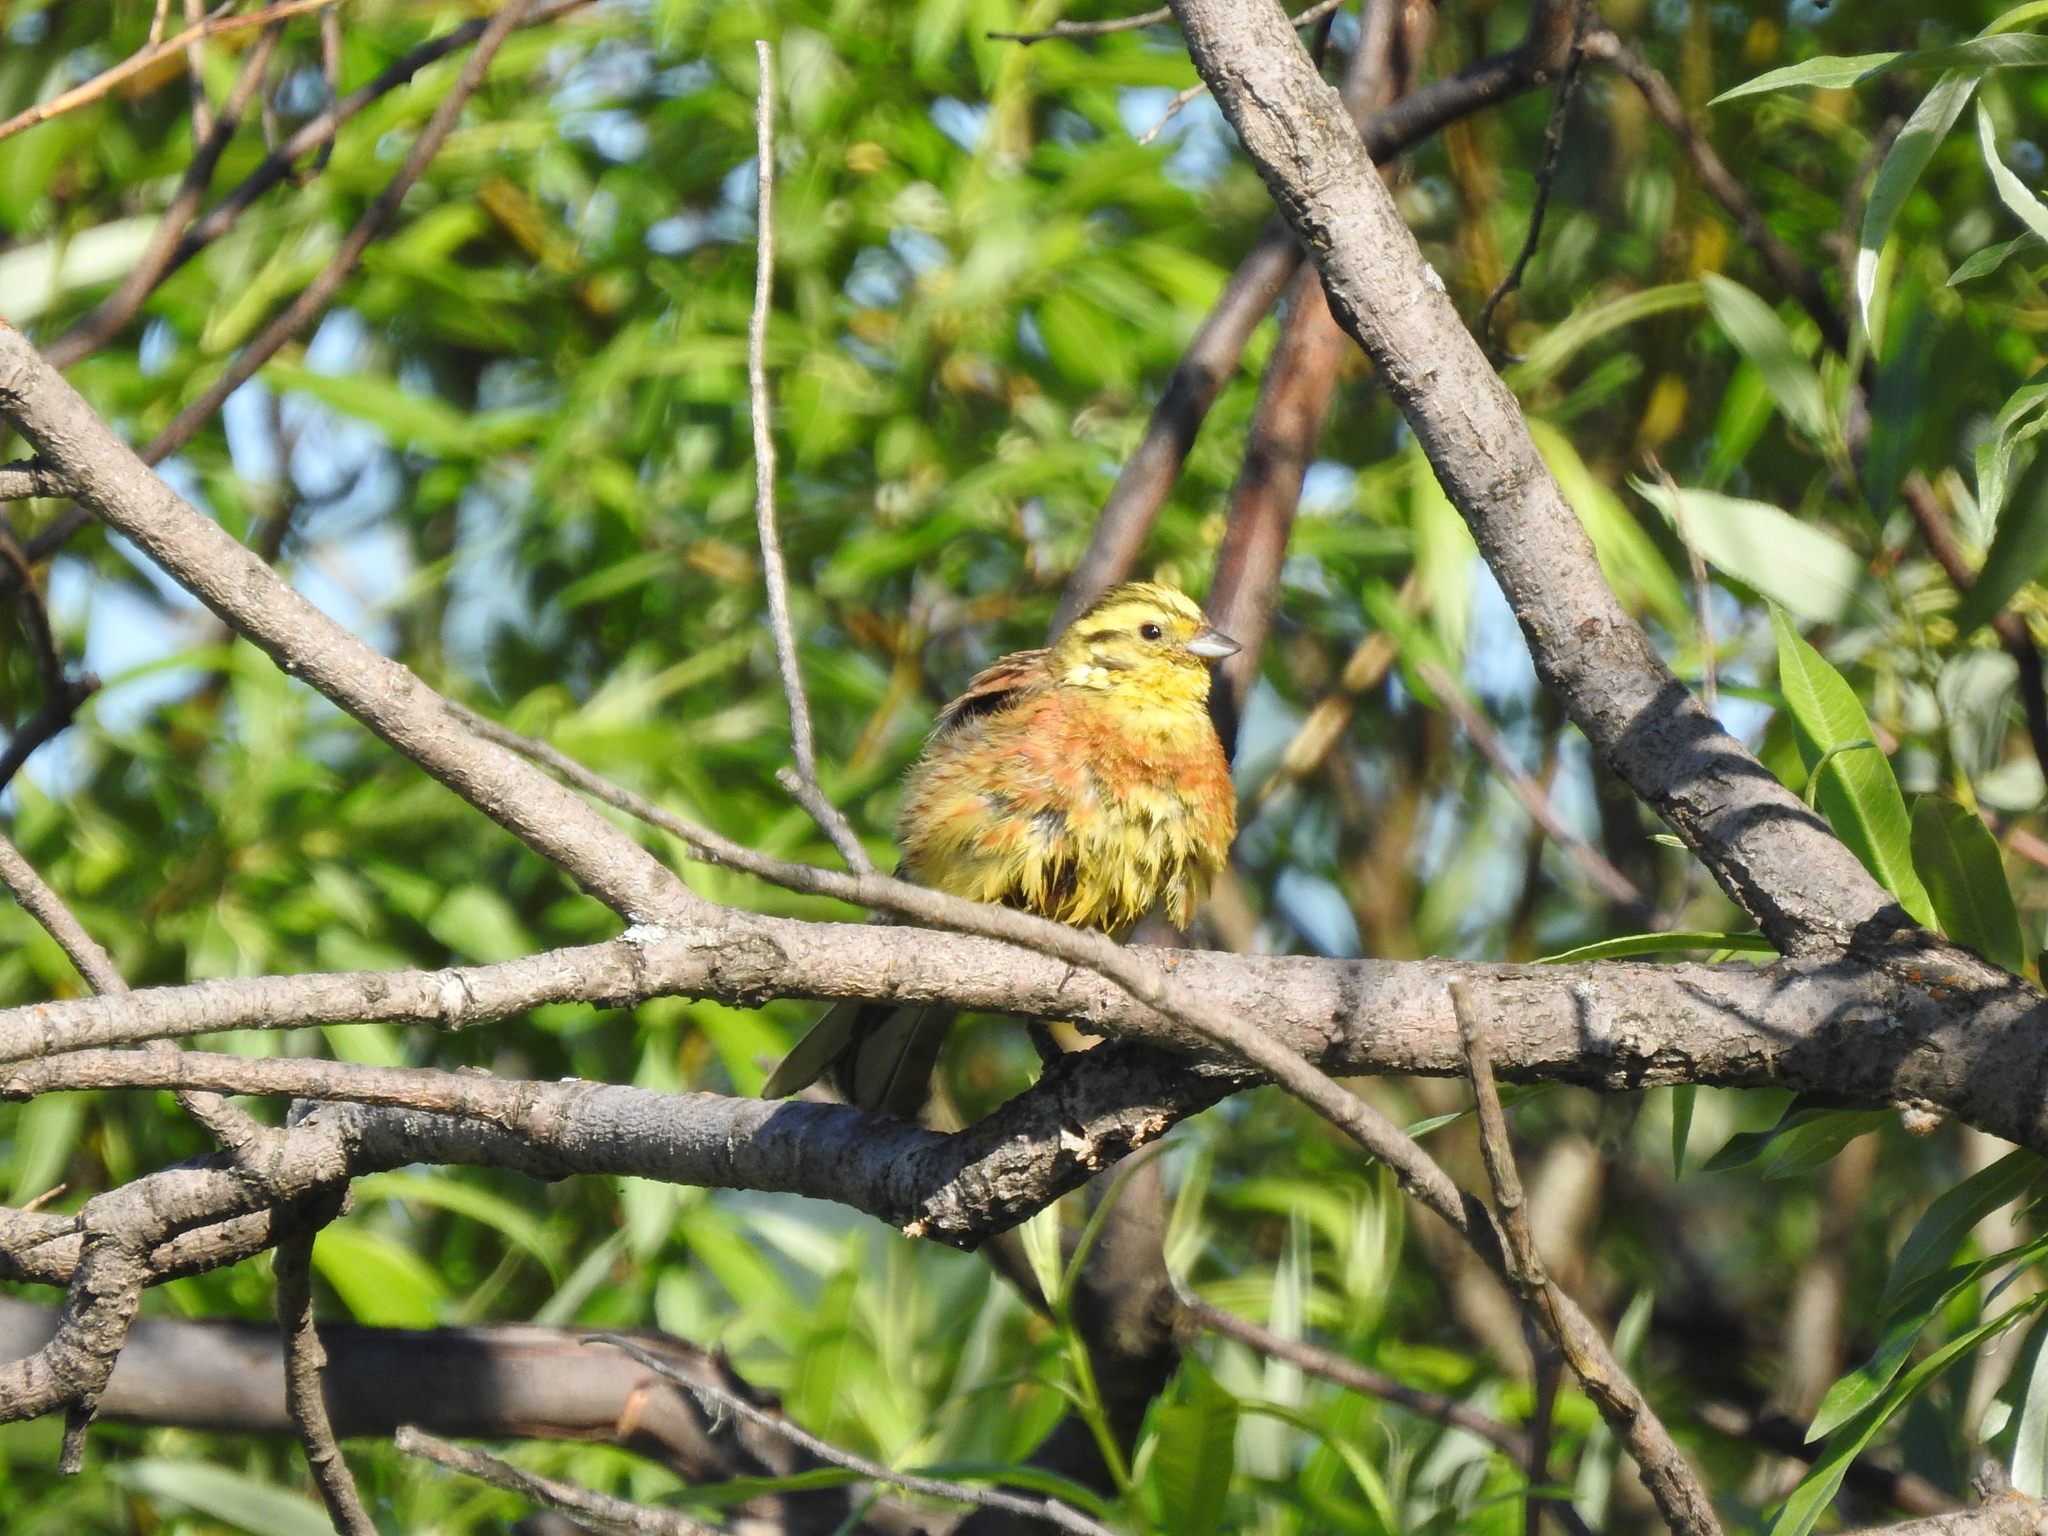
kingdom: Animalia
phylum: Chordata
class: Aves
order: Passeriformes
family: Emberizidae
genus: Emberiza
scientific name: Emberiza citrinella
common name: Yellowhammer
